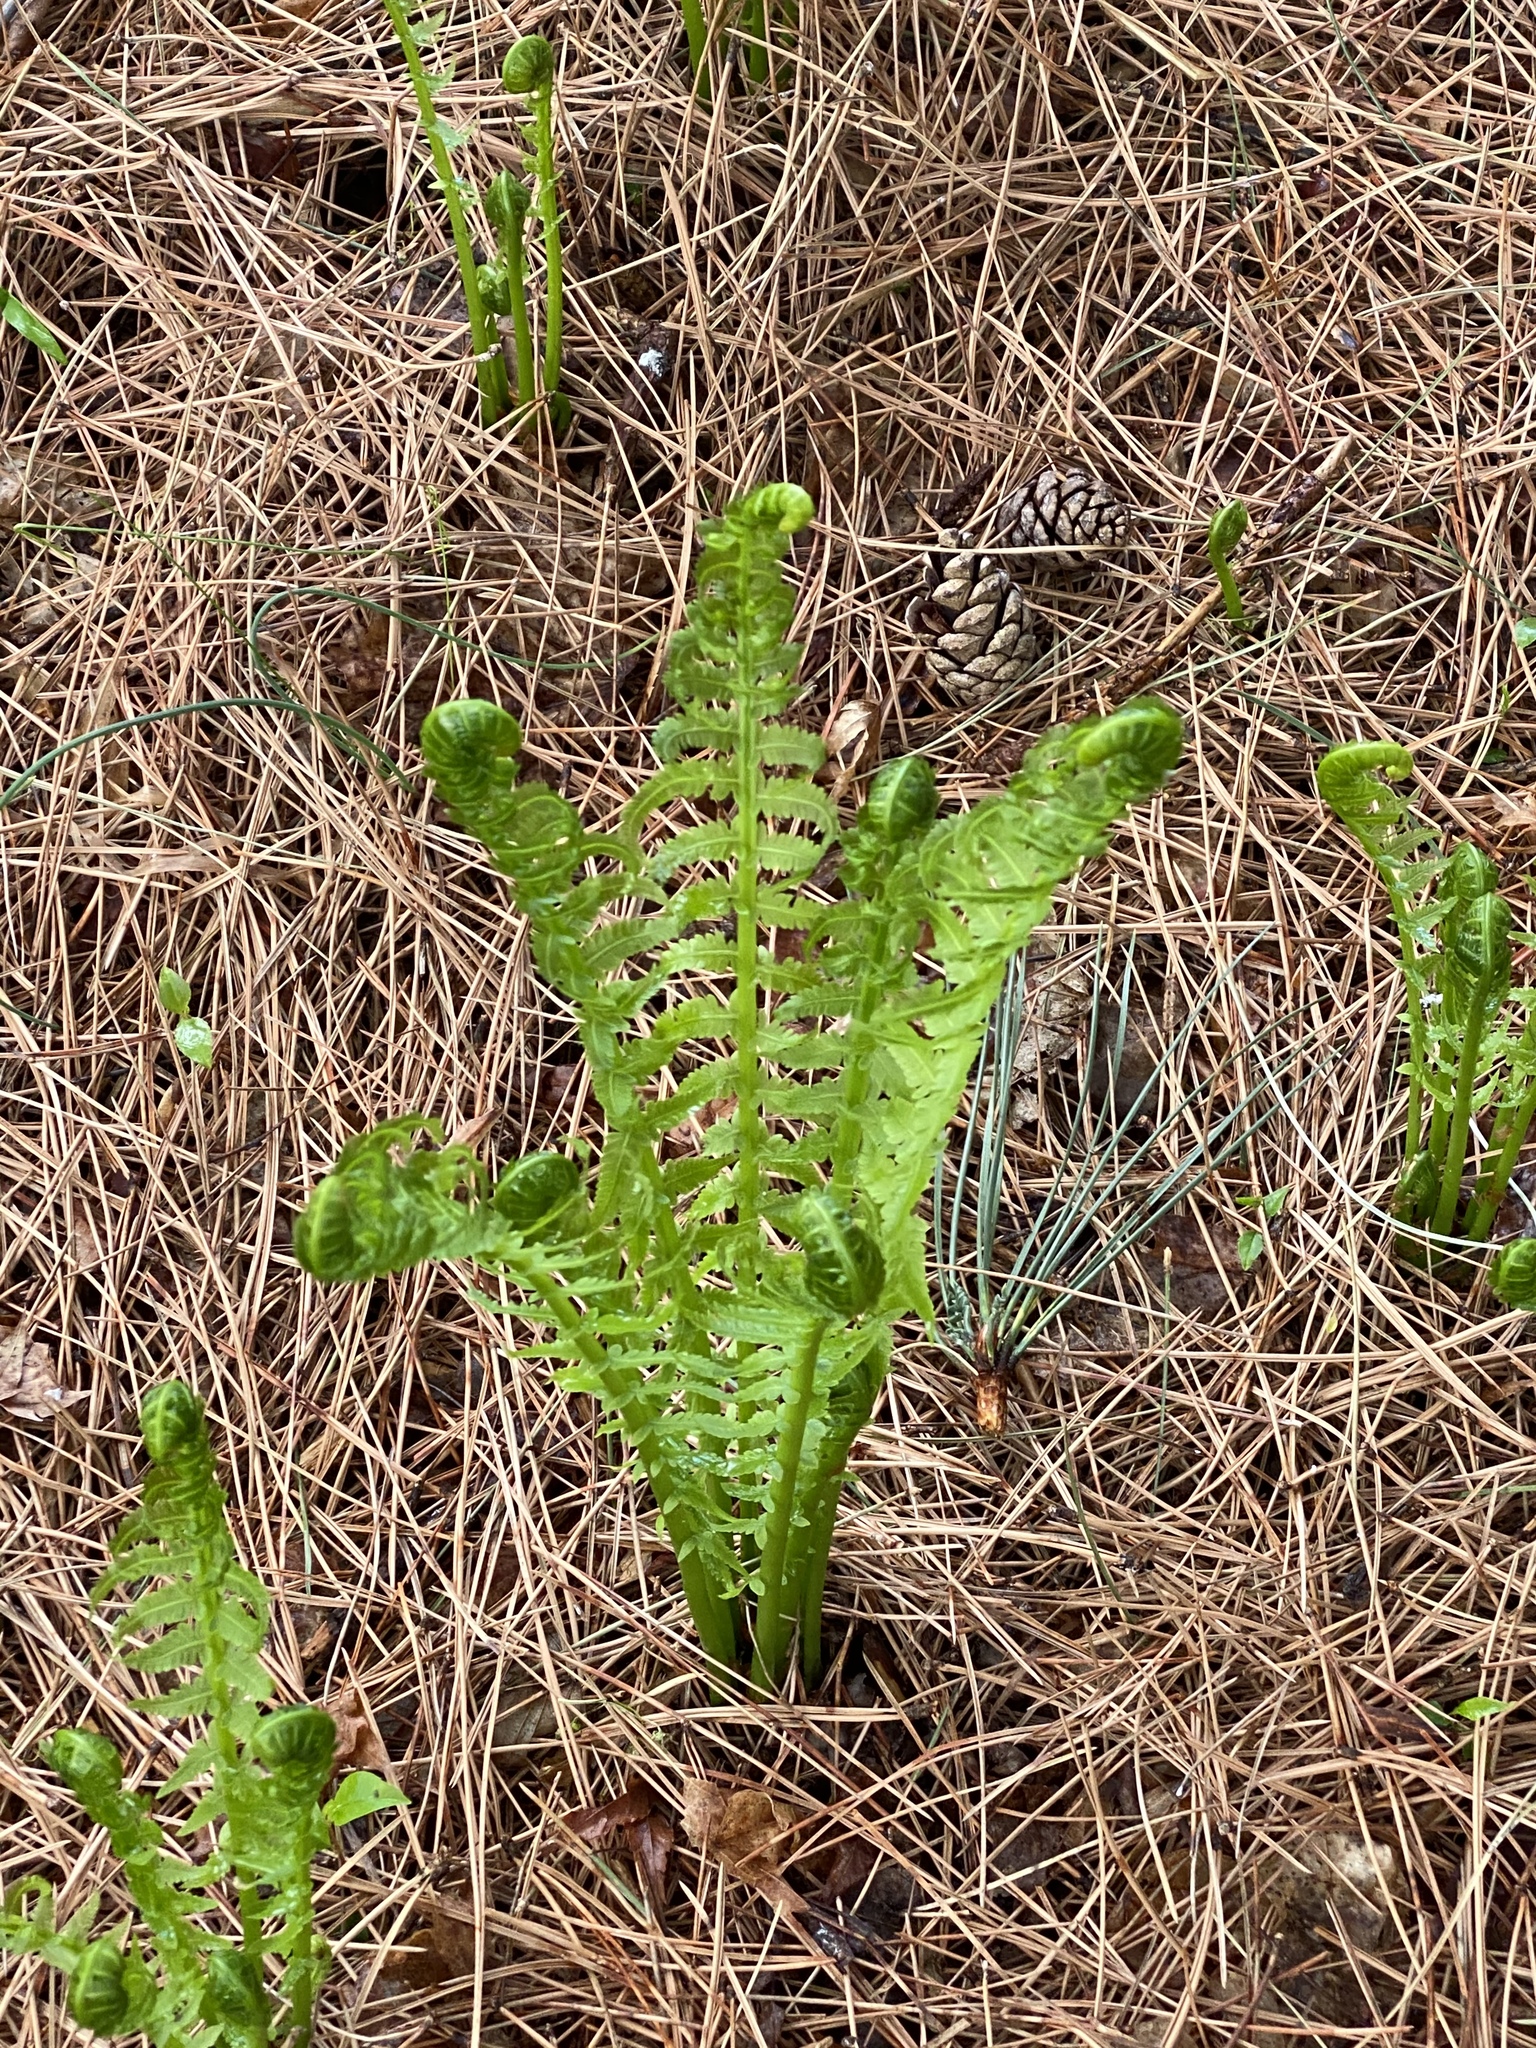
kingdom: Plantae
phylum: Tracheophyta
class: Polypodiopsida
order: Polypodiales
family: Onocleaceae
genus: Matteuccia
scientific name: Matteuccia struthiopteris
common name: Ostrich fern
